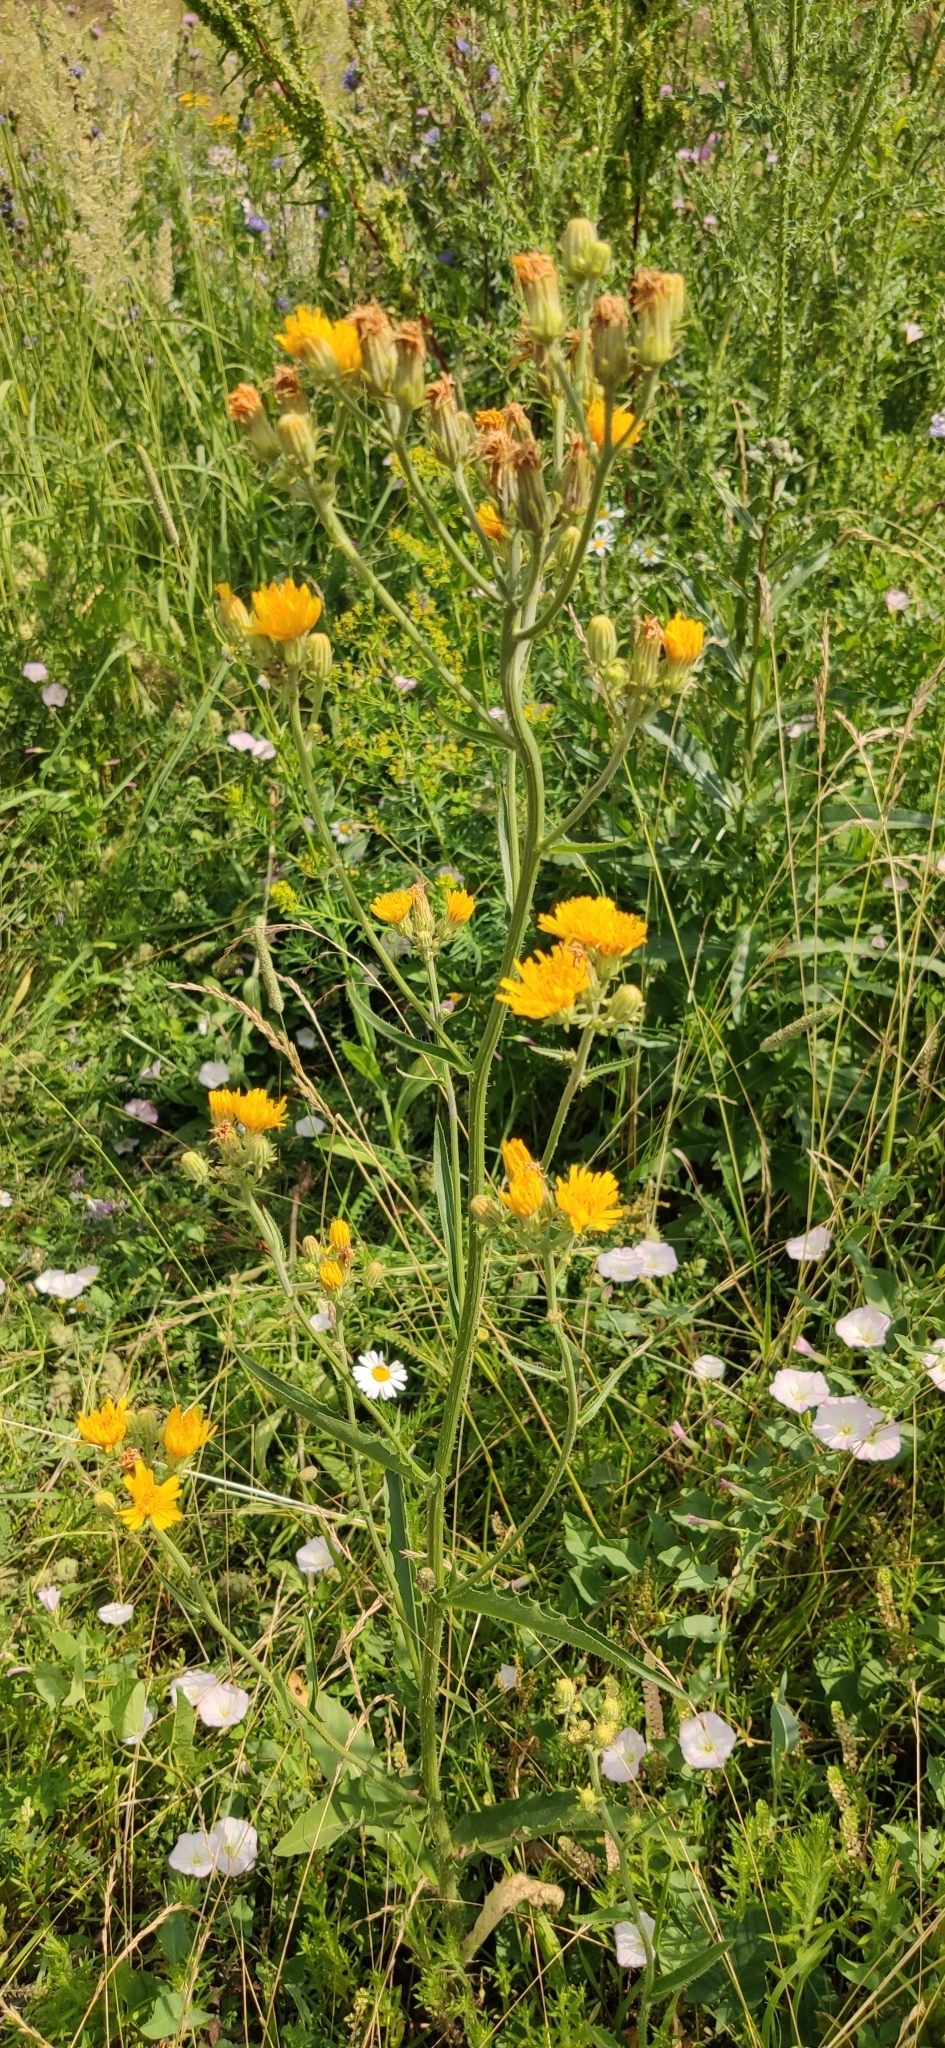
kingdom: Plantae
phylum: Tracheophyta
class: Magnoliopsida
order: Asterales
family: Asteraceae
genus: Picris
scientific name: Picris hieracioides
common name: Hawkweed oxtongue
